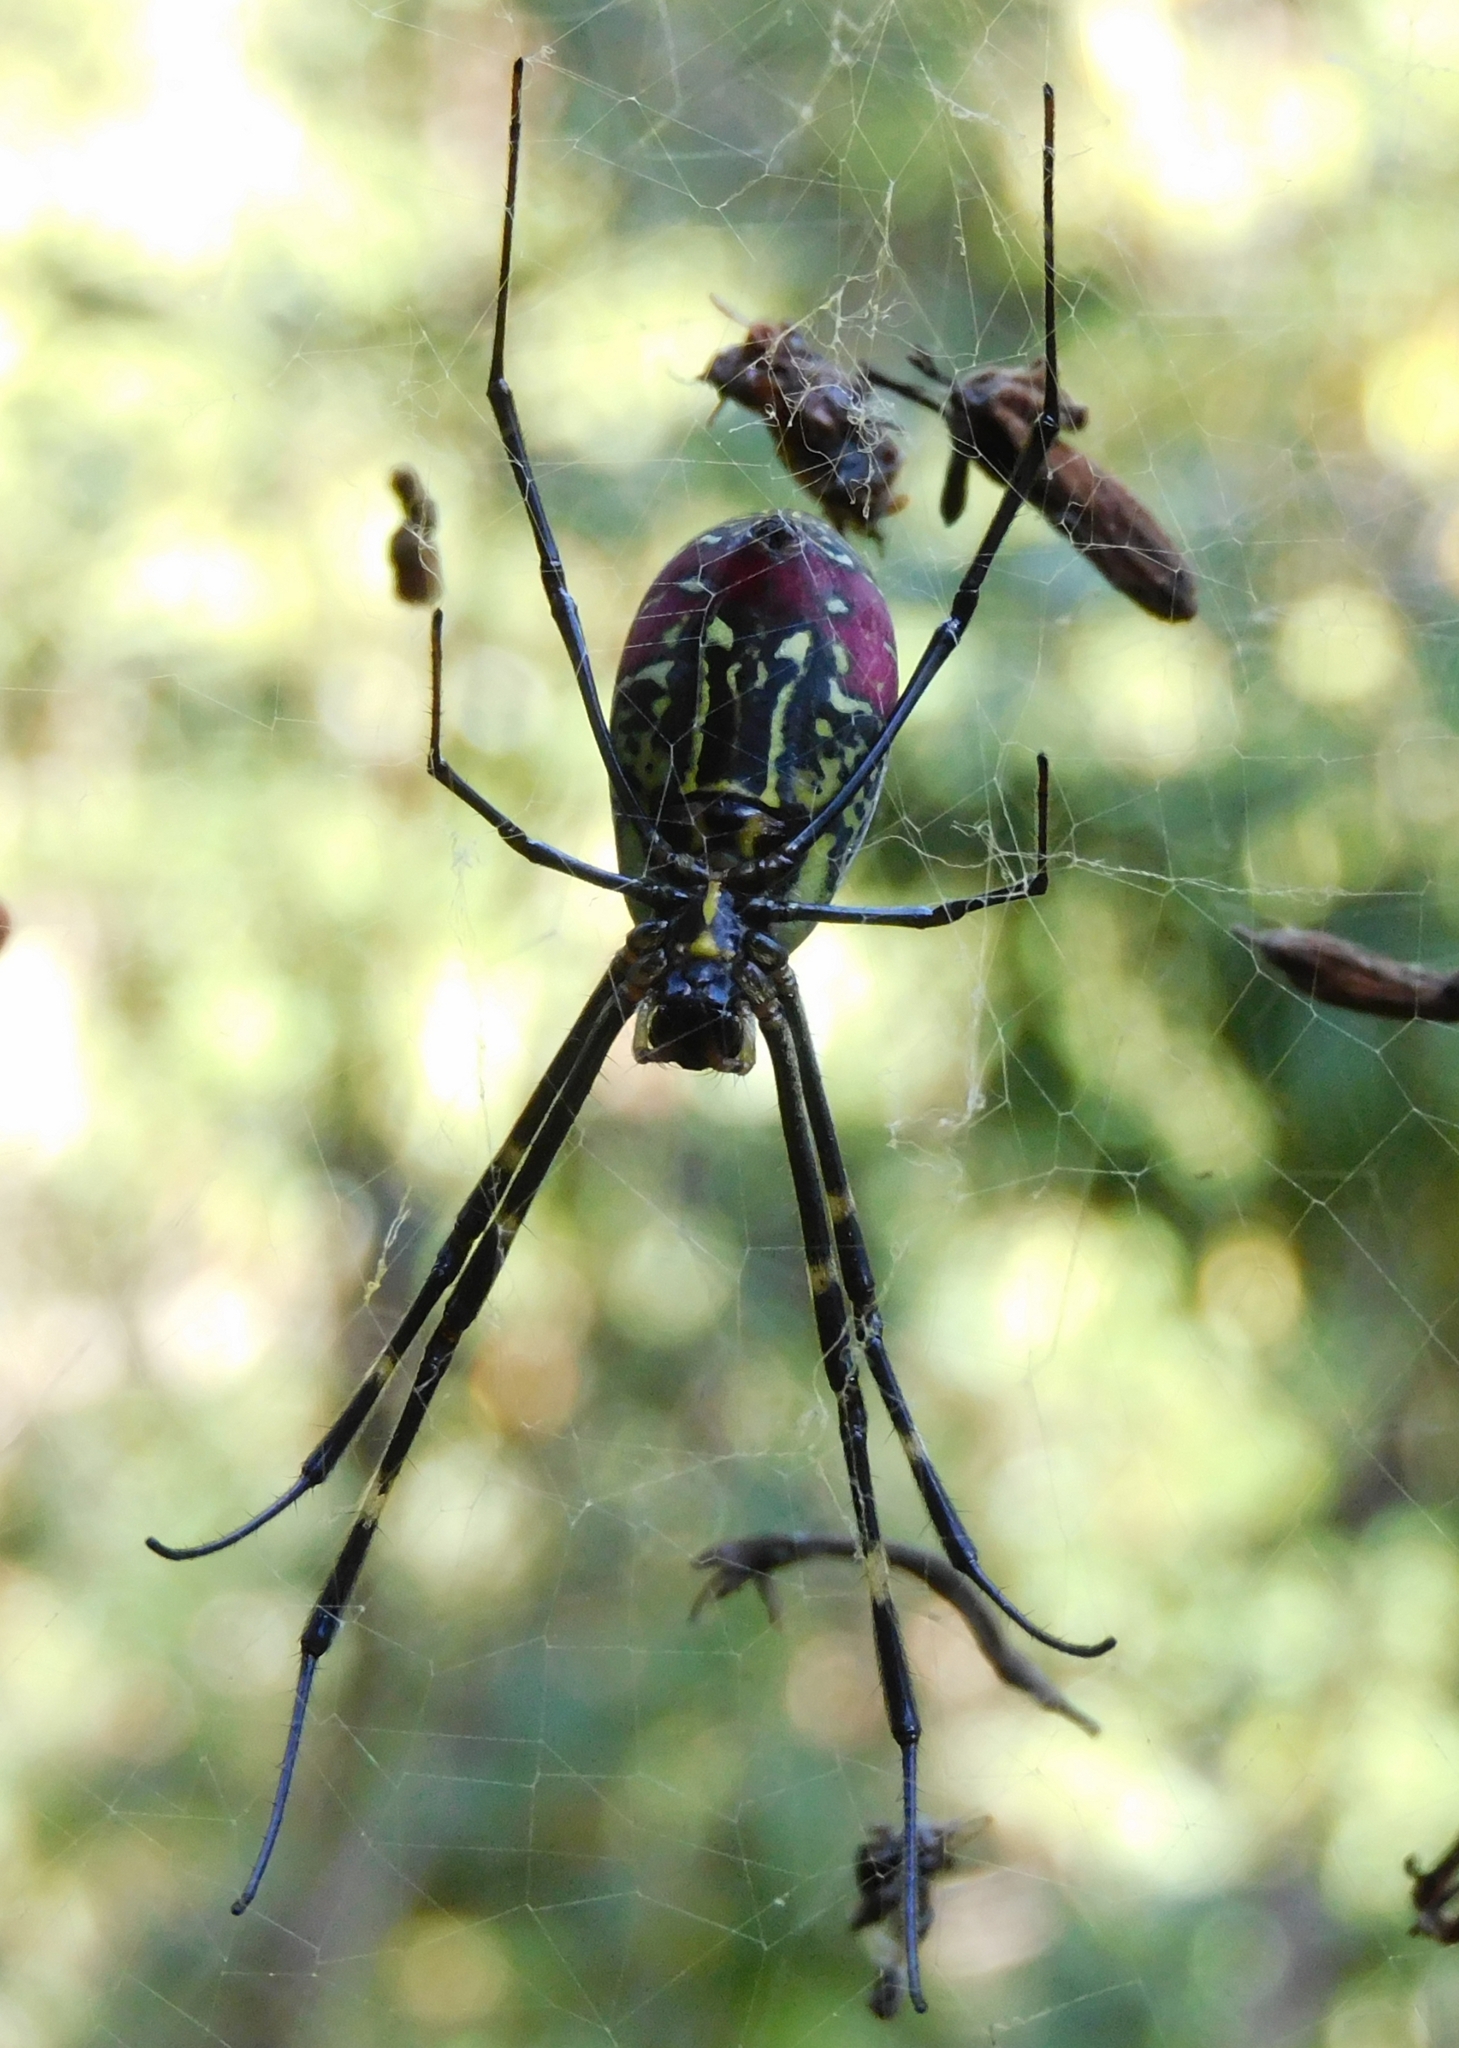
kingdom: Animalia
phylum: Arthropoda
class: Arachnida
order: Araneae
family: Araneidae
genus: Trichonephila
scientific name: Trichonephila clavata
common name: Jorō spider
